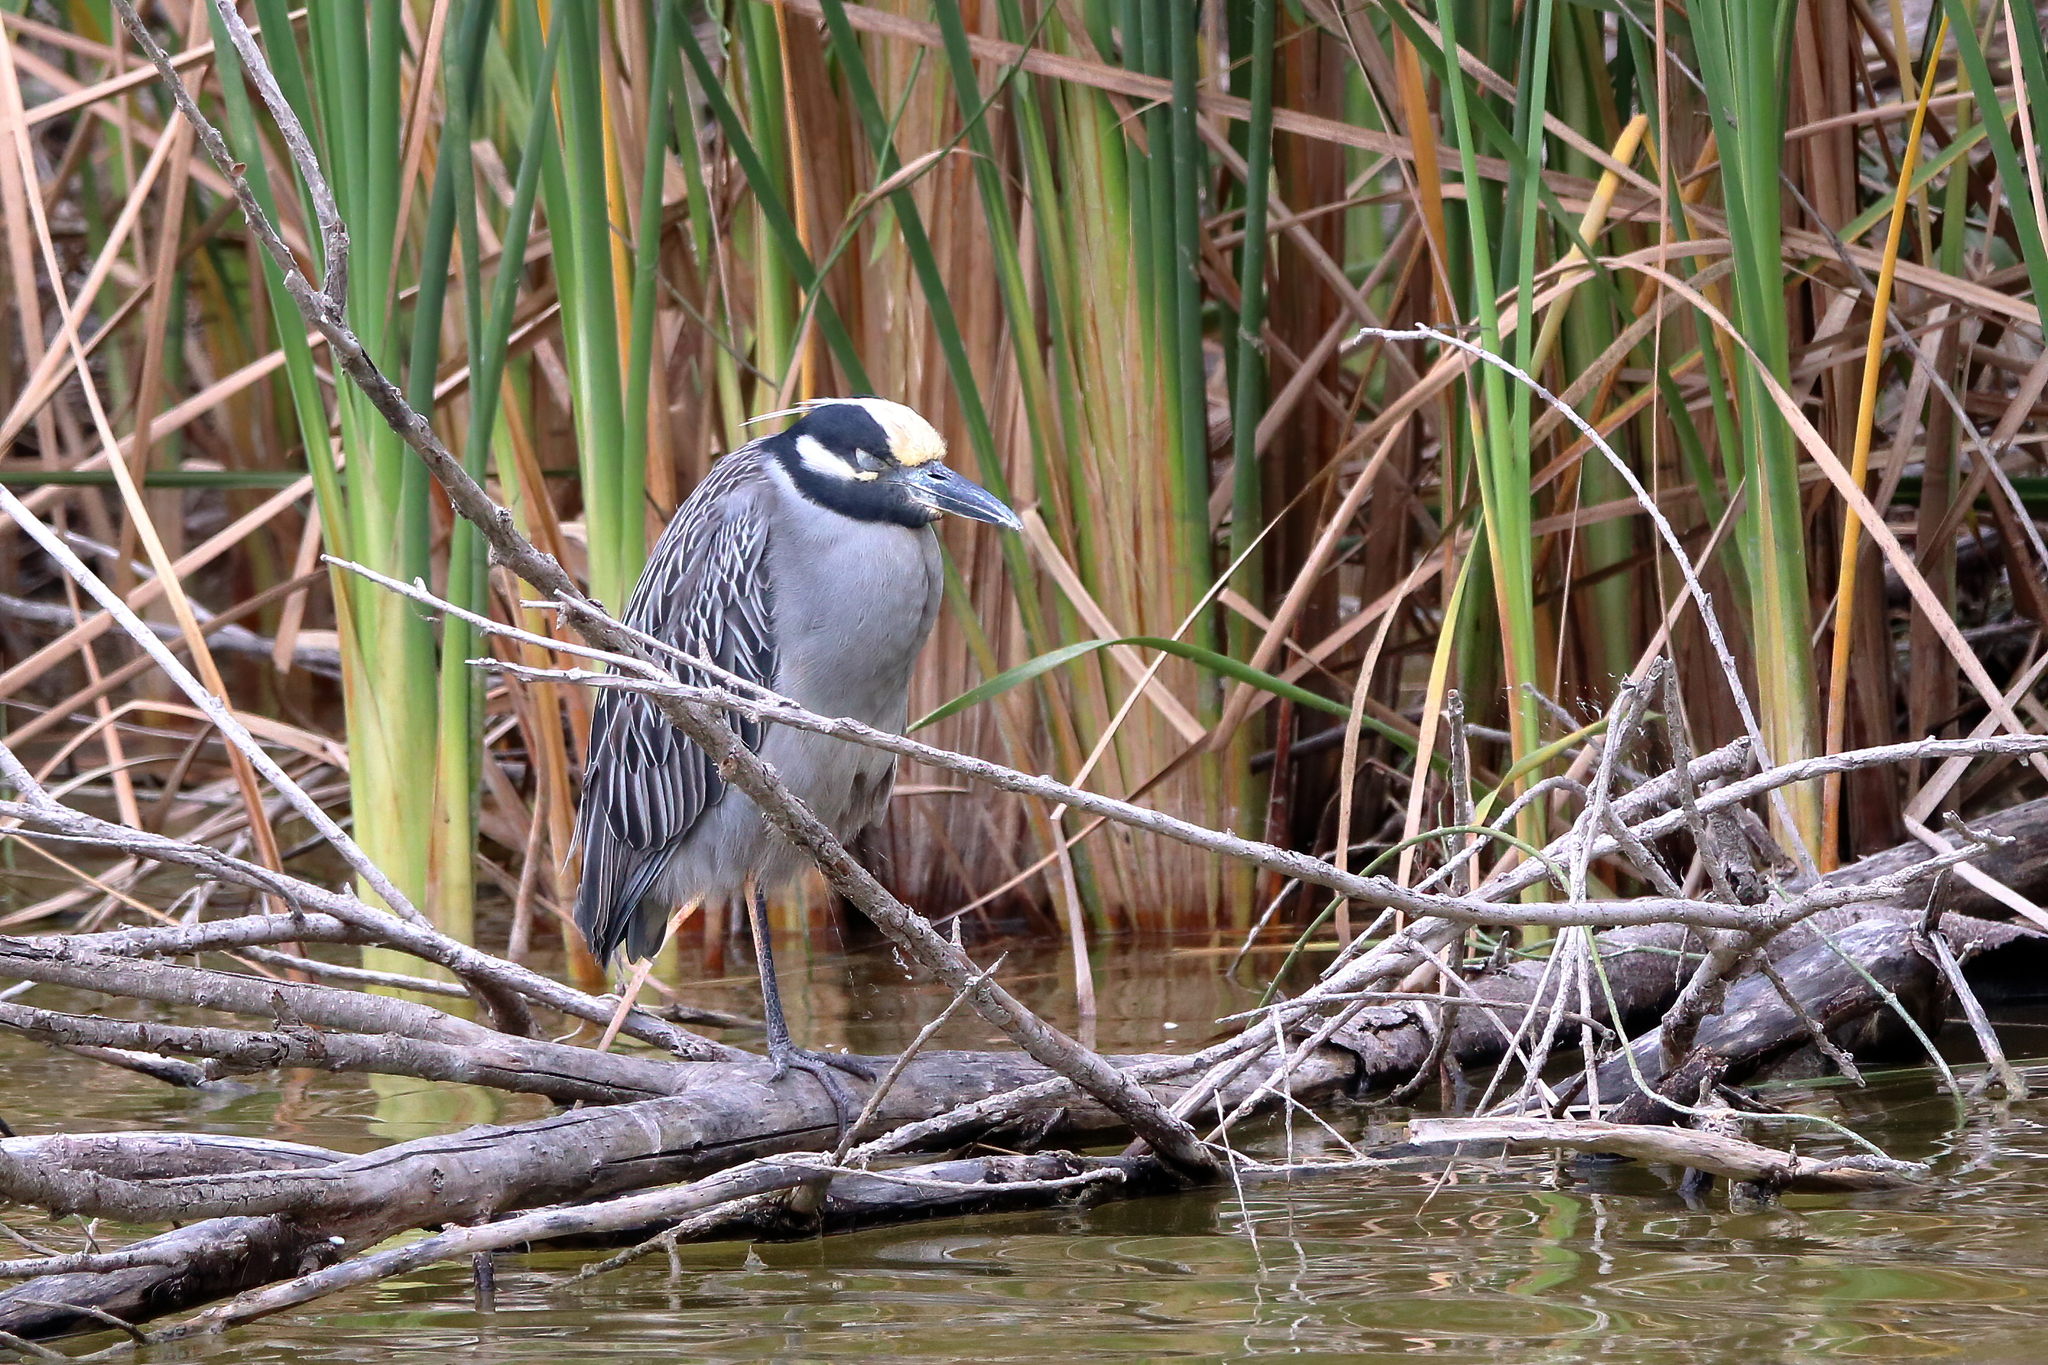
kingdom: Animalia
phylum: Chordata
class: Aves
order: Pelecaniformes
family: Ardeidae
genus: Nyctanassa
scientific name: Nyctanassa violacea
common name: Yellow-crowned night heron
